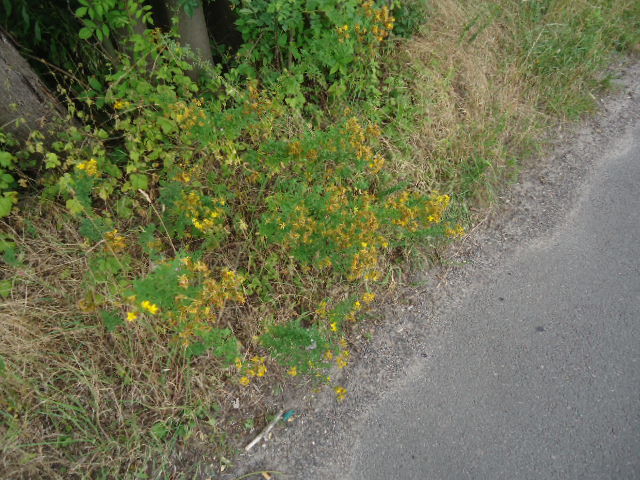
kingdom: Plantae
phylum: Tracheophyta
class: Magnoliopsida
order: Malpighiales
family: Hypericaceae
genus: Hypericum
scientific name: Hypericum perforatum
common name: Common st. johnswort
